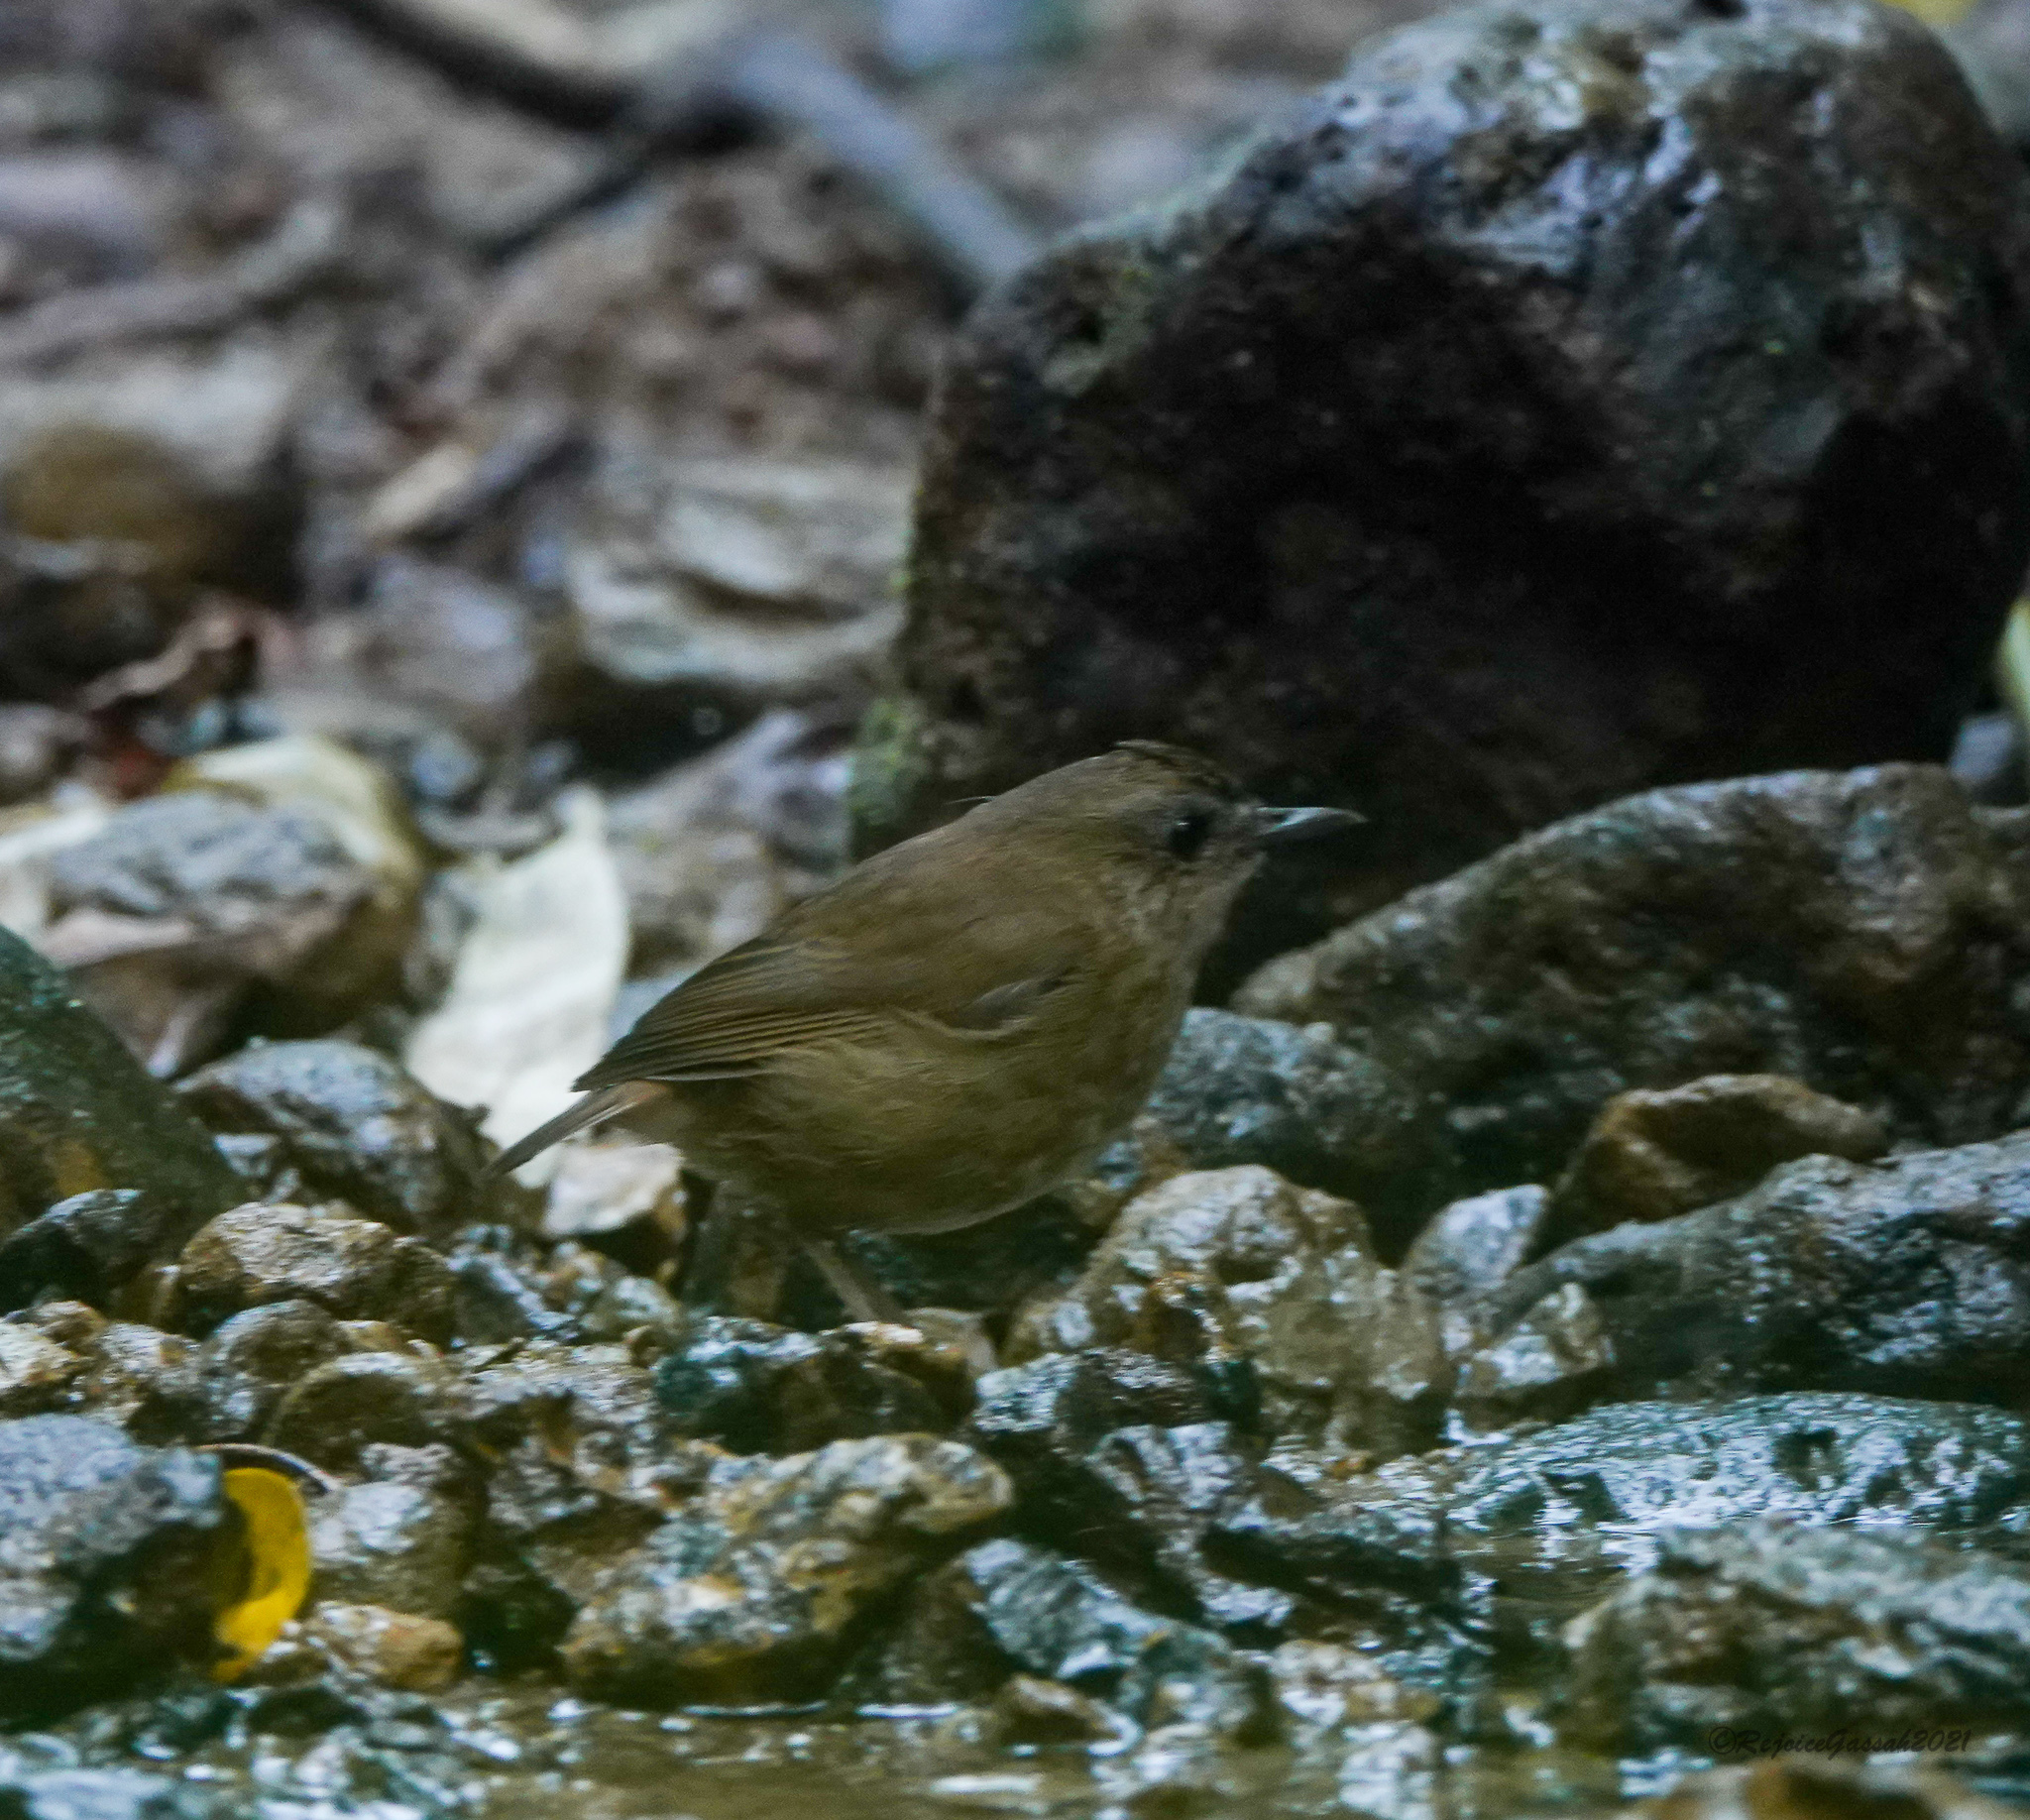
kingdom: Animalia
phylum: Chordata
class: Aves
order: Passeriformes
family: Muscicapidae
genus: Brachypteryx
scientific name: Brachypteryx leucophris
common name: Lesser shortwing
